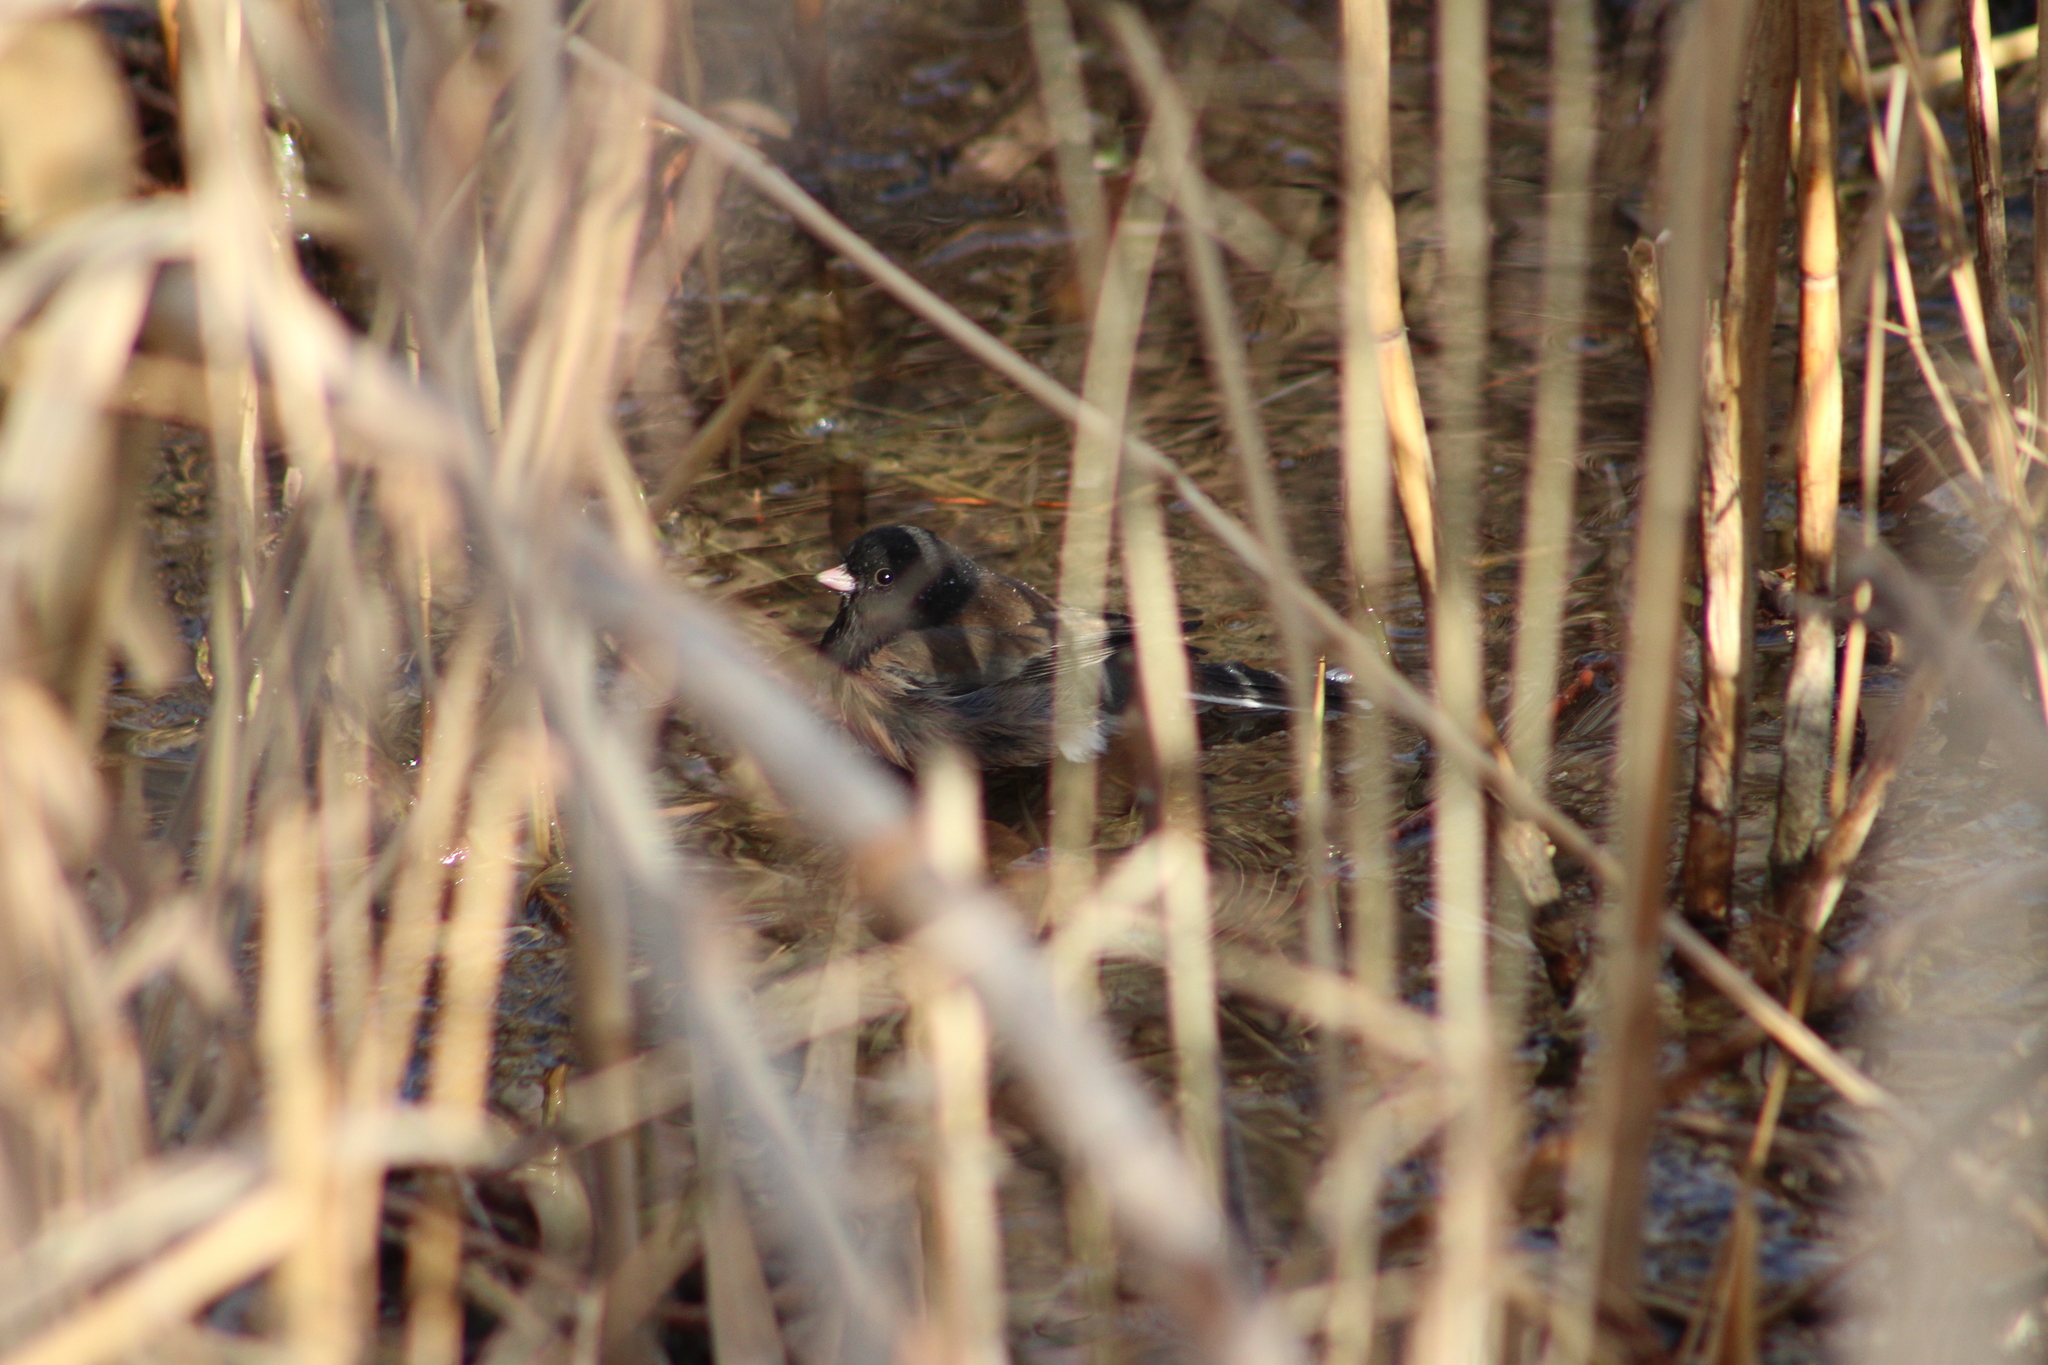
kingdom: Animalia
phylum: Chordata
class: Aves
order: Passeriformes
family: Passerellidae
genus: Junco
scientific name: Junco hyemalis
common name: Dark-eyed junco
